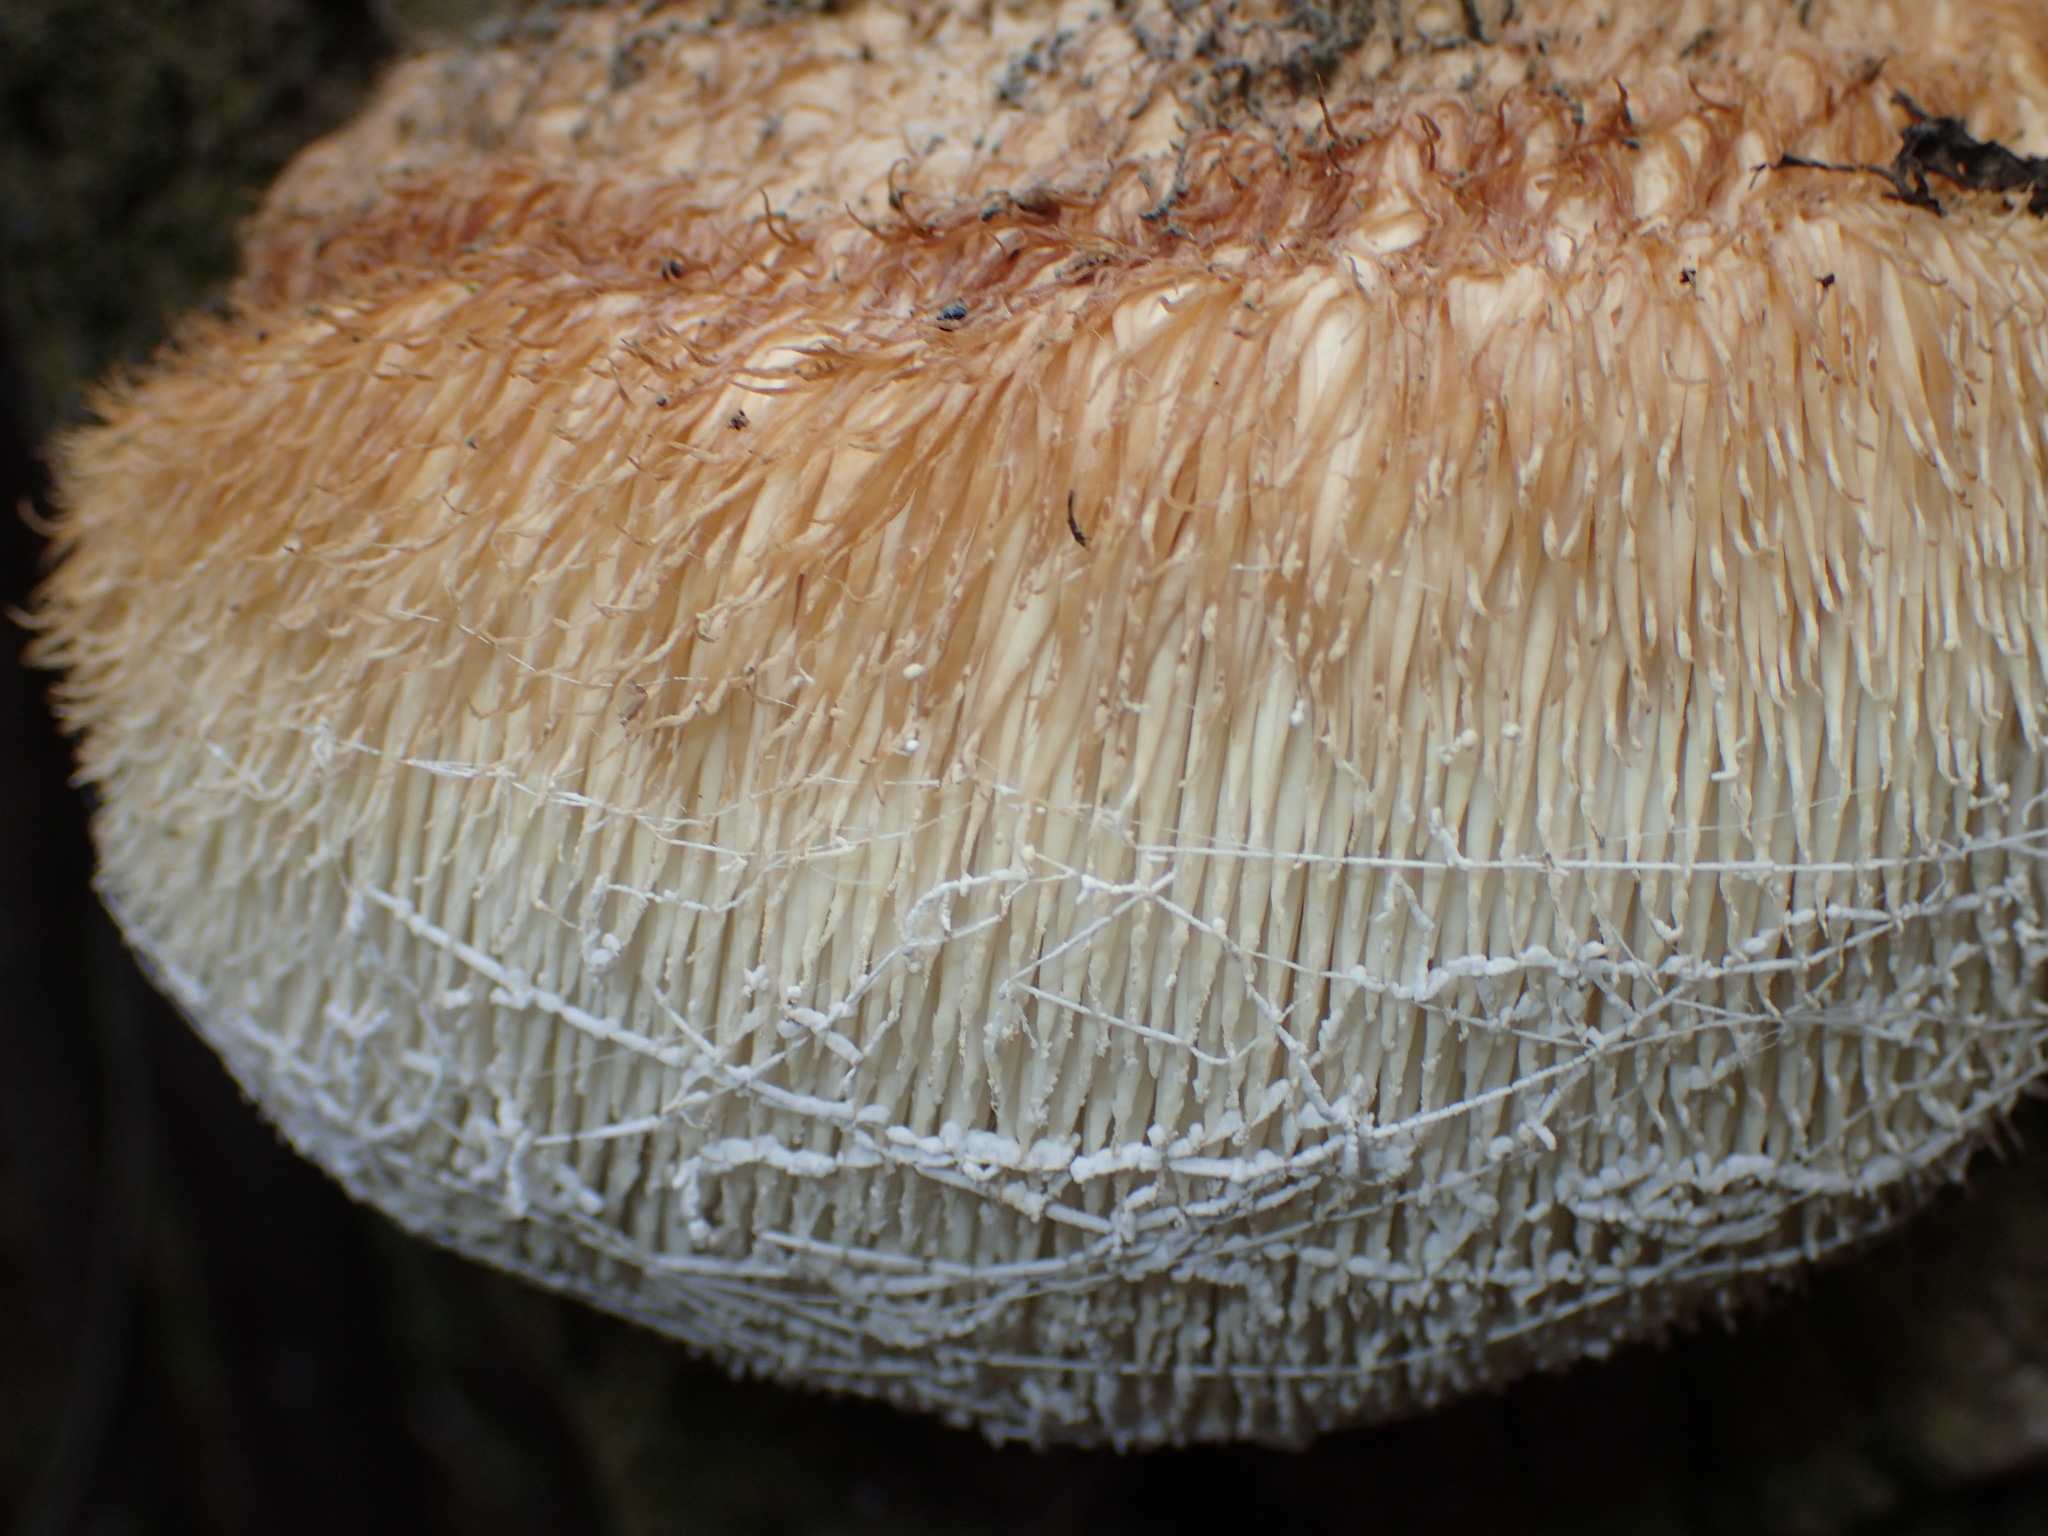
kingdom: Fungi
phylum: Basidiomycota
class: Agaricomycetes
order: Russulales
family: Hericiaceae
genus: Hericium
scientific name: Hericium erinaceus
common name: Bearded tooth
